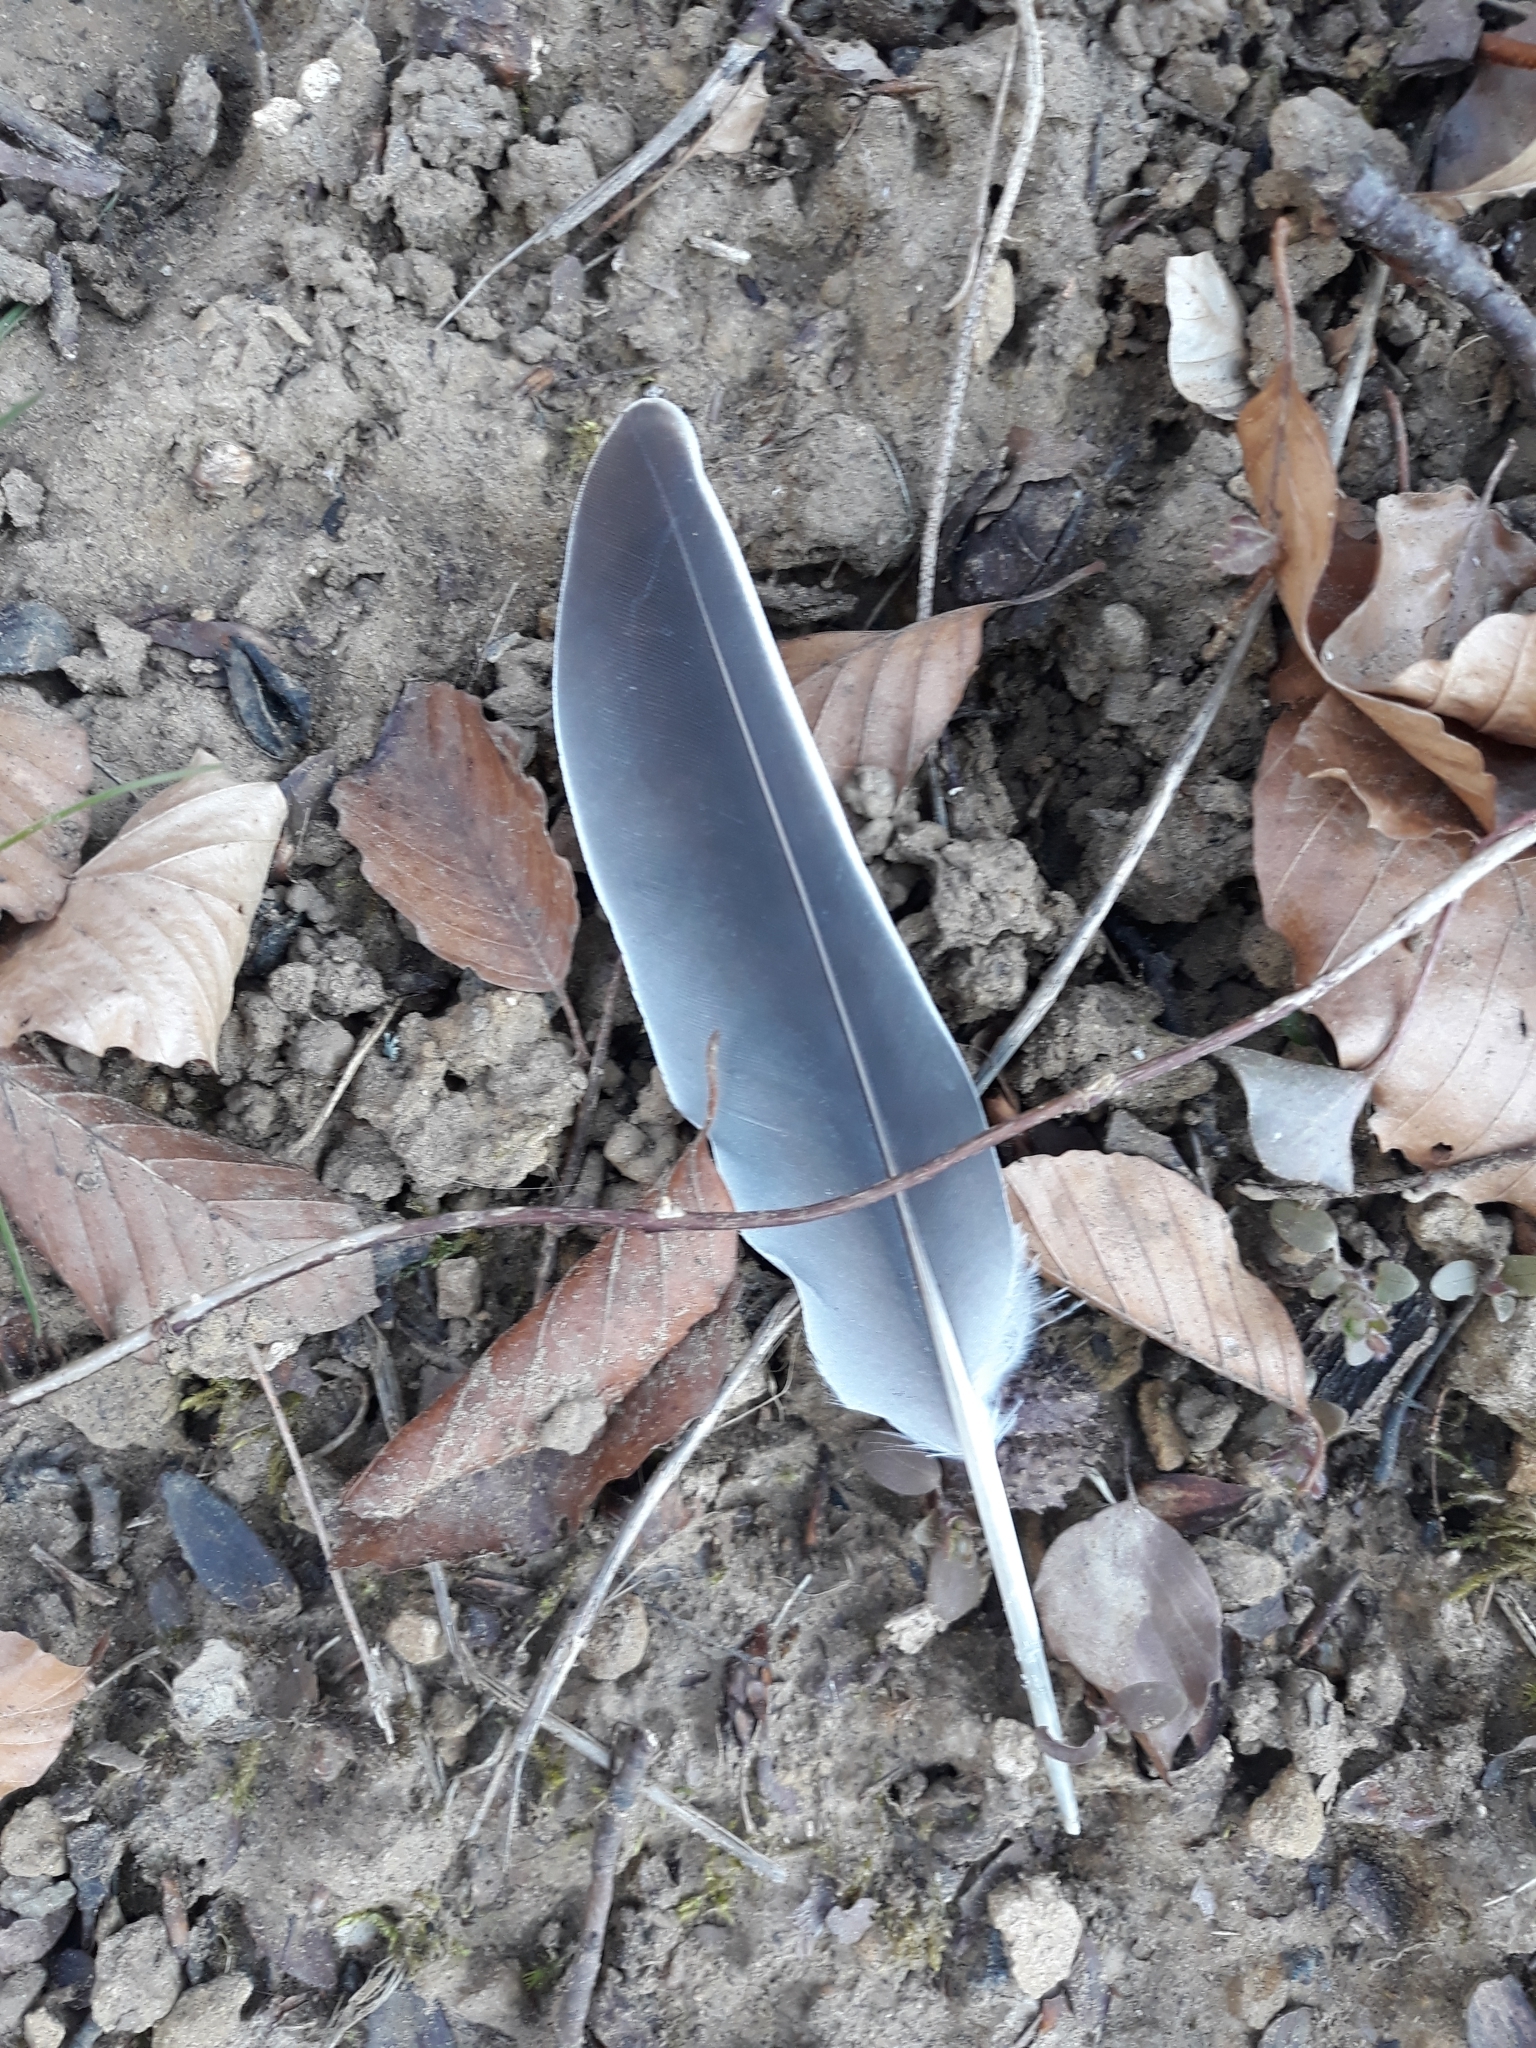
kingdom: Animalia
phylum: Chordata
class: Aves
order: Columbiformes
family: Columbidae
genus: Columba
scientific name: Columba palumbus
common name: Common wood pigeon
